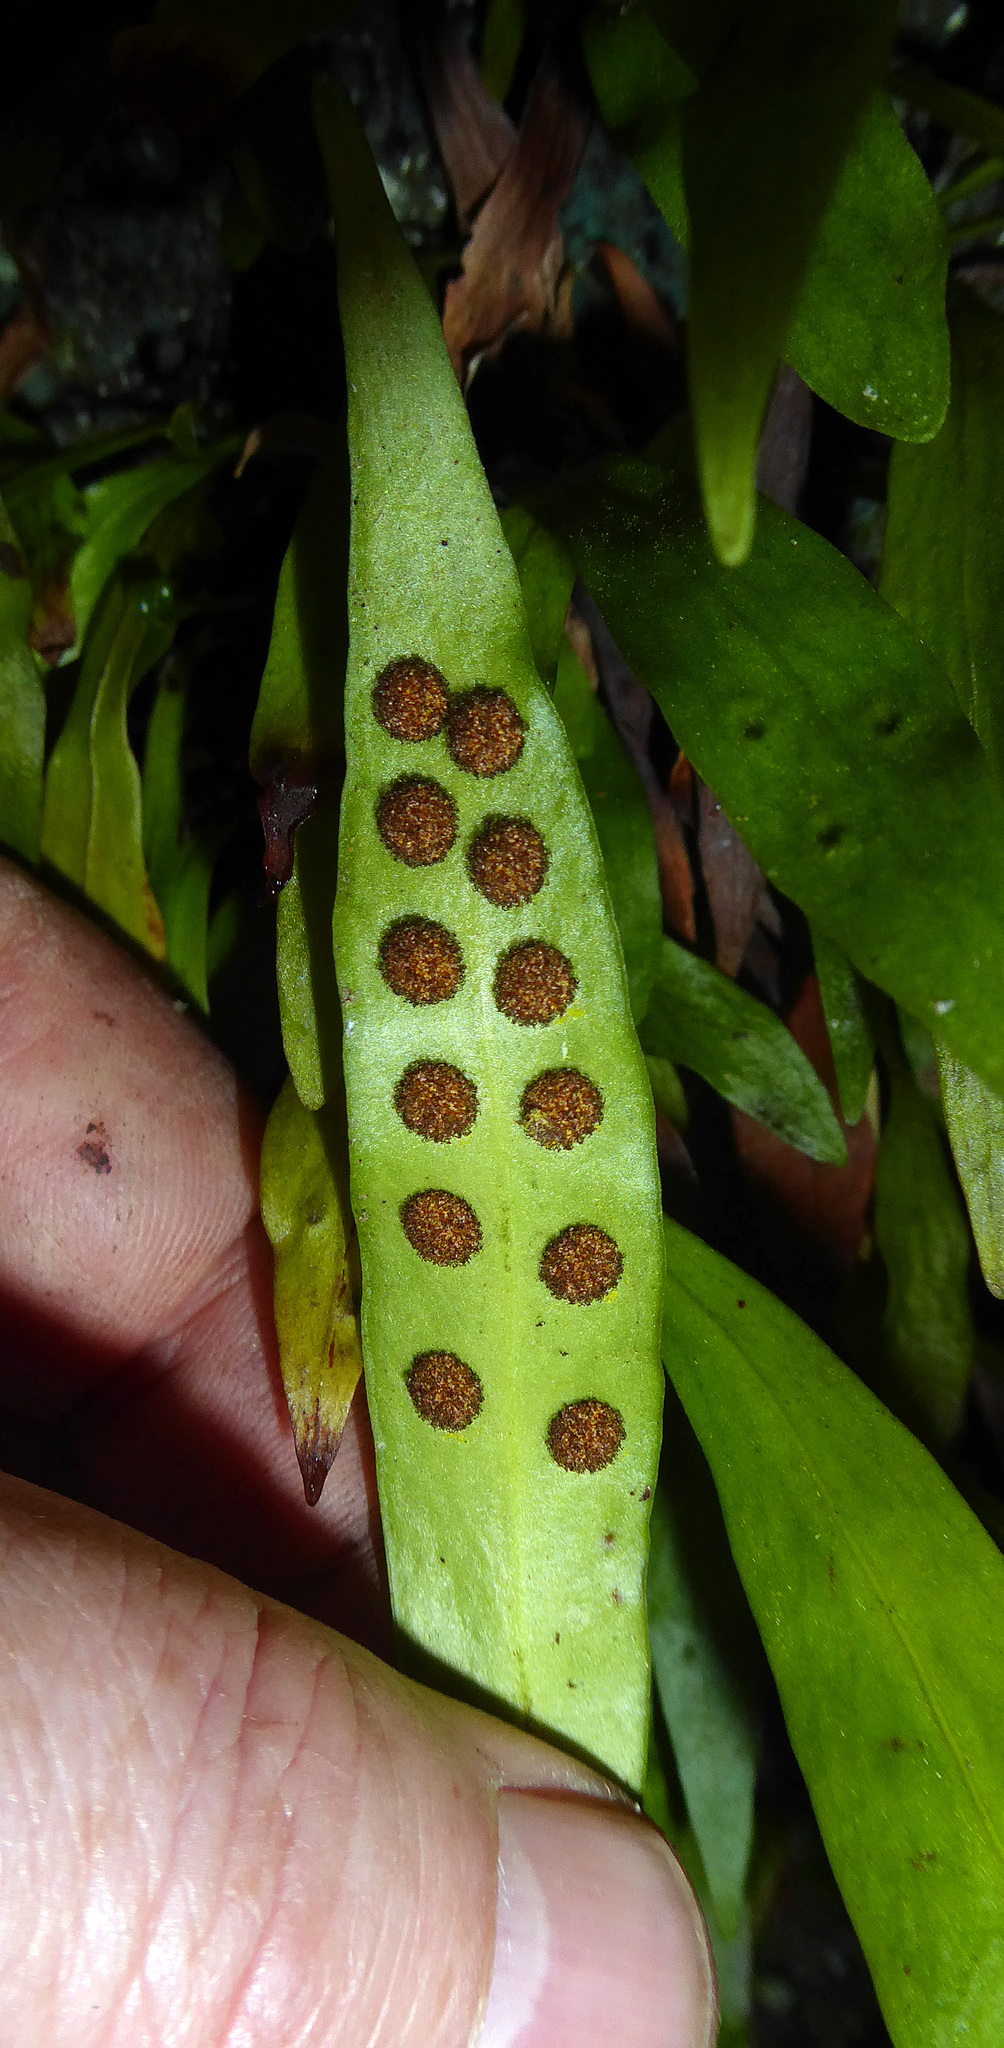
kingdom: Plantae
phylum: Tracheophyta
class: Polypodiopsida
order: Polypodiales
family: Polypodiaceae
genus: Loxogramme
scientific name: Loxogramme dictyopteris
